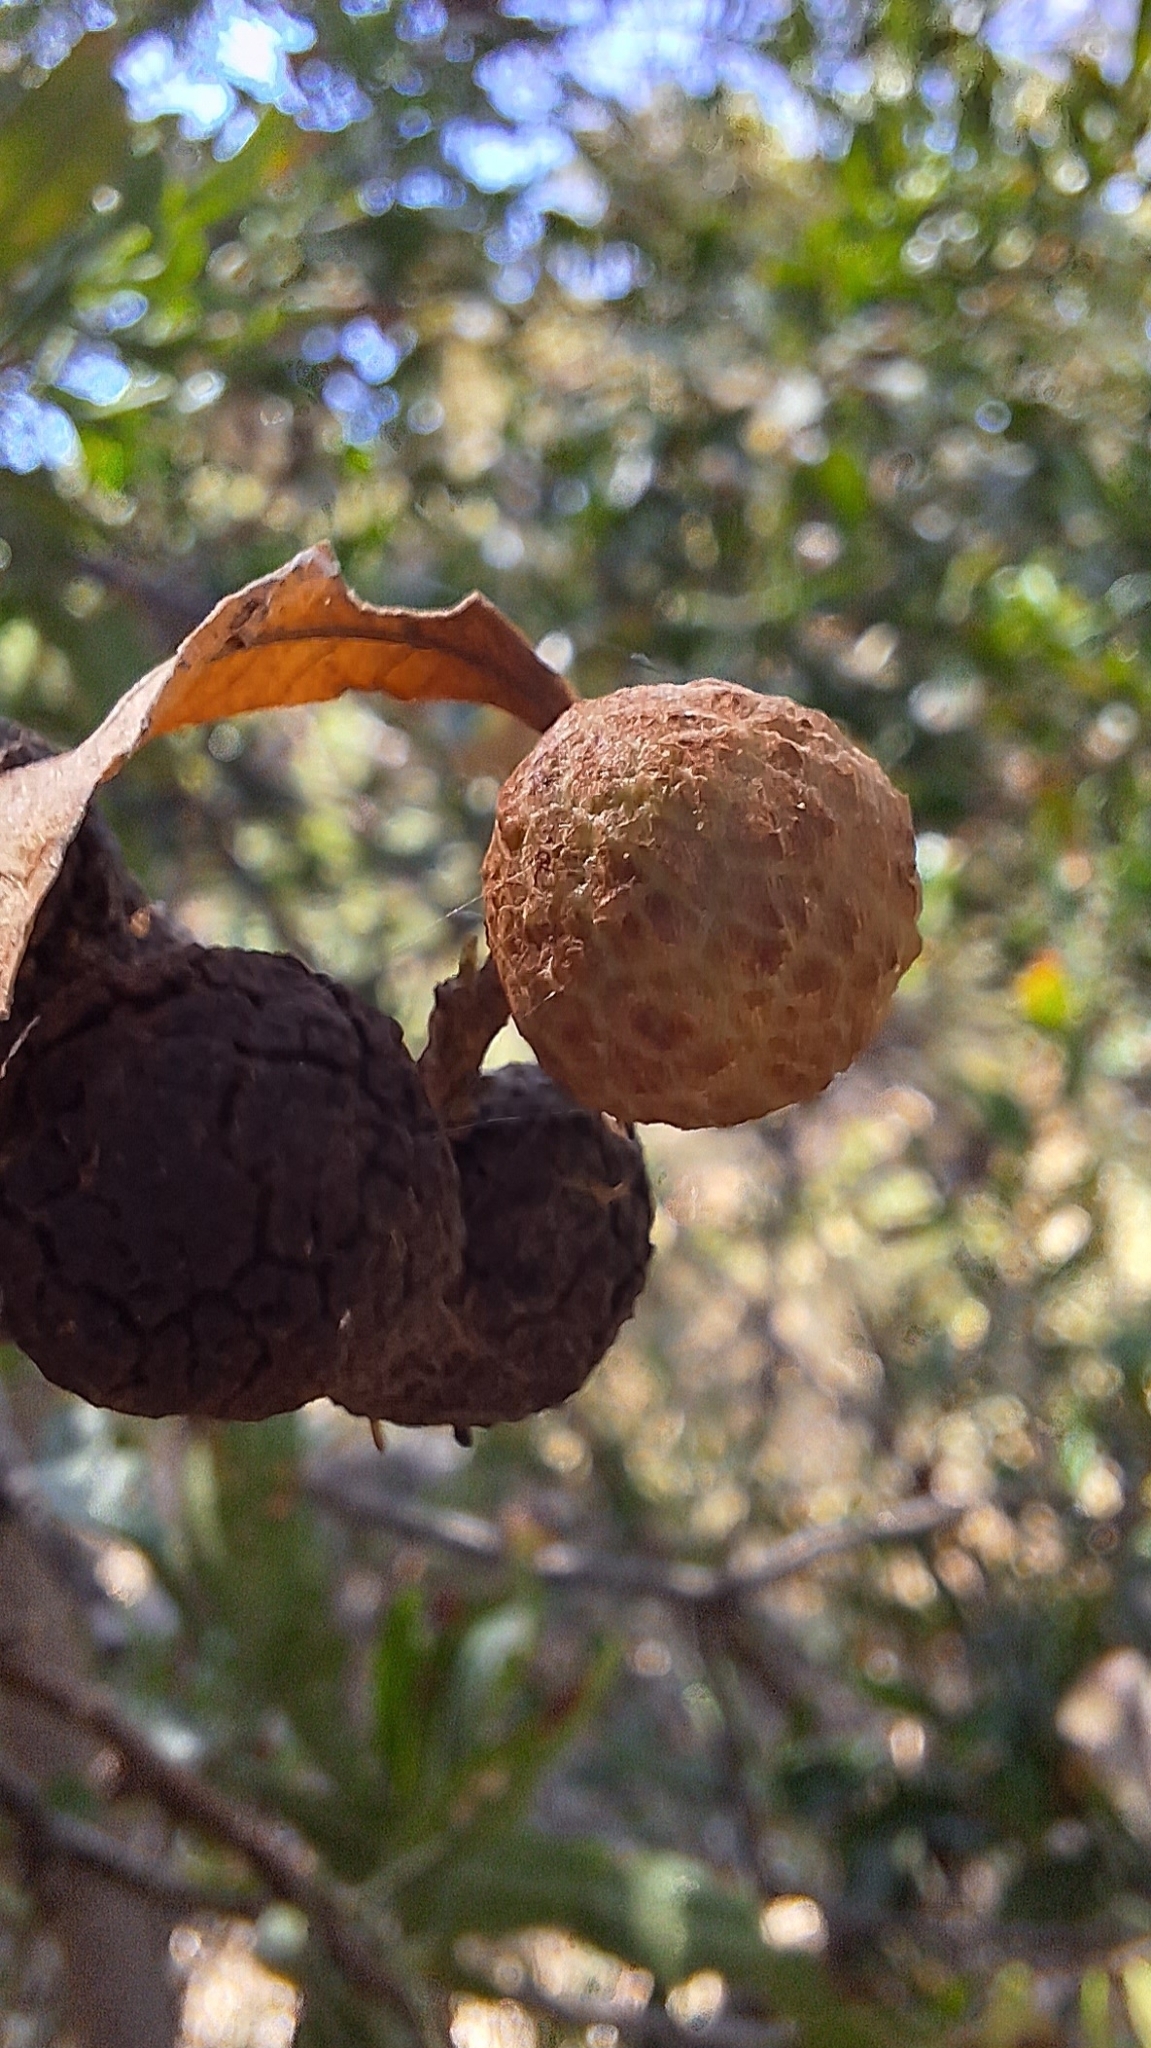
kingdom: Animalia
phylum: Arthropoda
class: Insecta
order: Diptera
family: Cecidomyiidae
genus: Asphondylia
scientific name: Asphondylia dodonaeae
